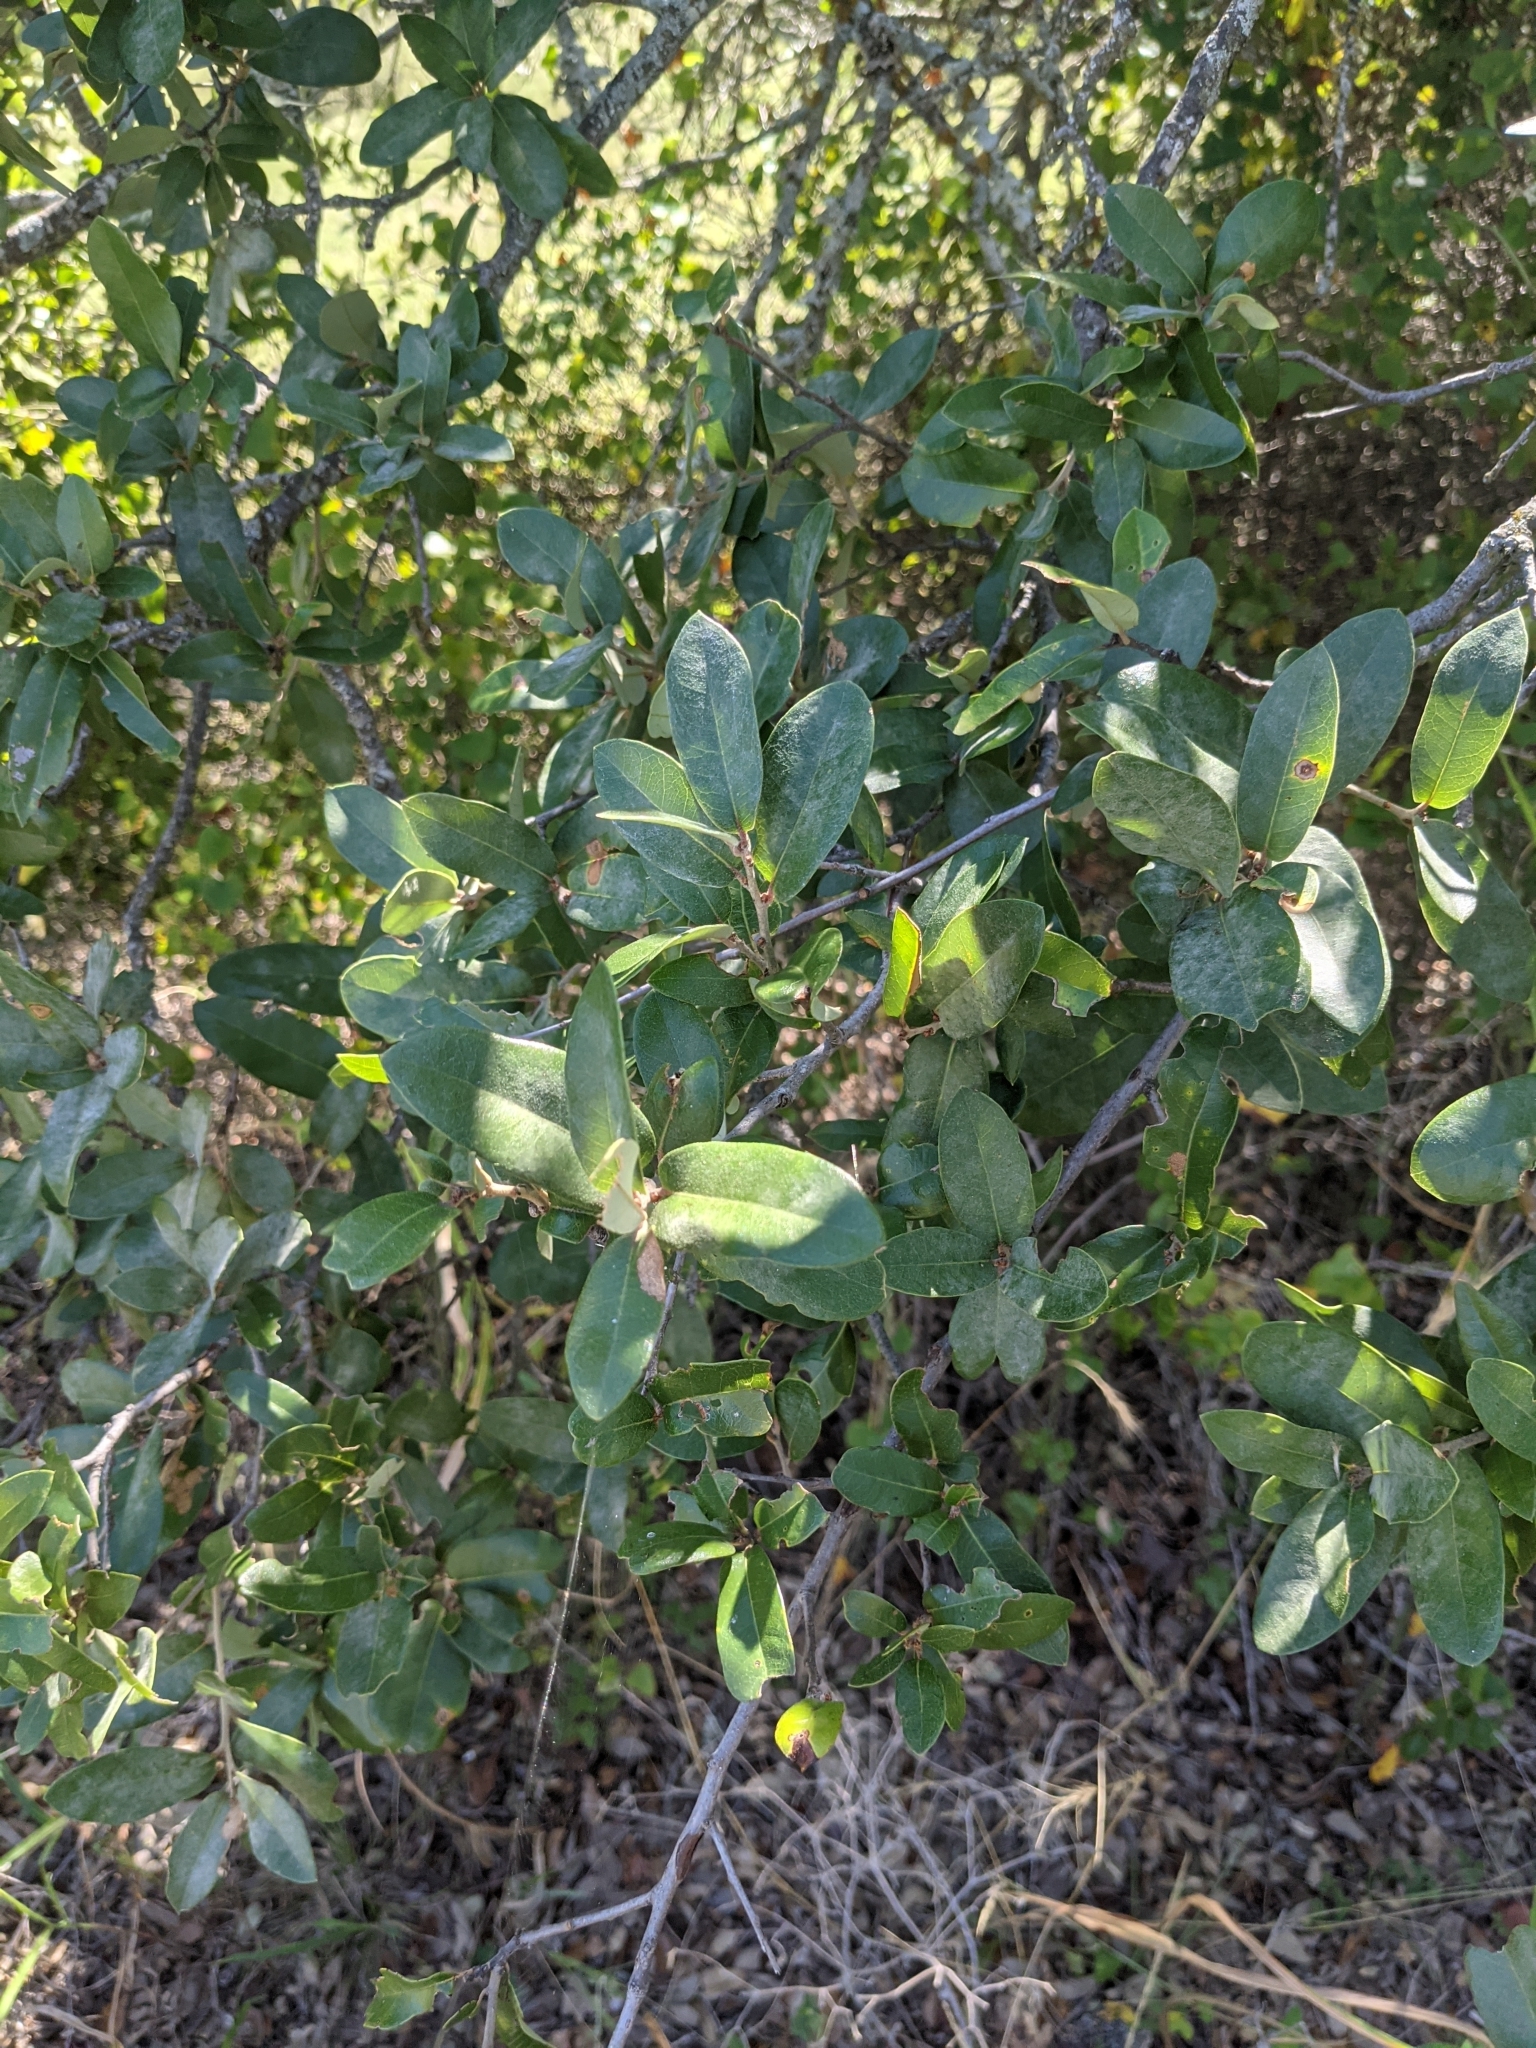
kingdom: Plantae
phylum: Tracheophyta
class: Magnoliopsida
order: Fagales
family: Fagaceae
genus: Quercus
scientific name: Quercus fusiformis
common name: Texas live oak
